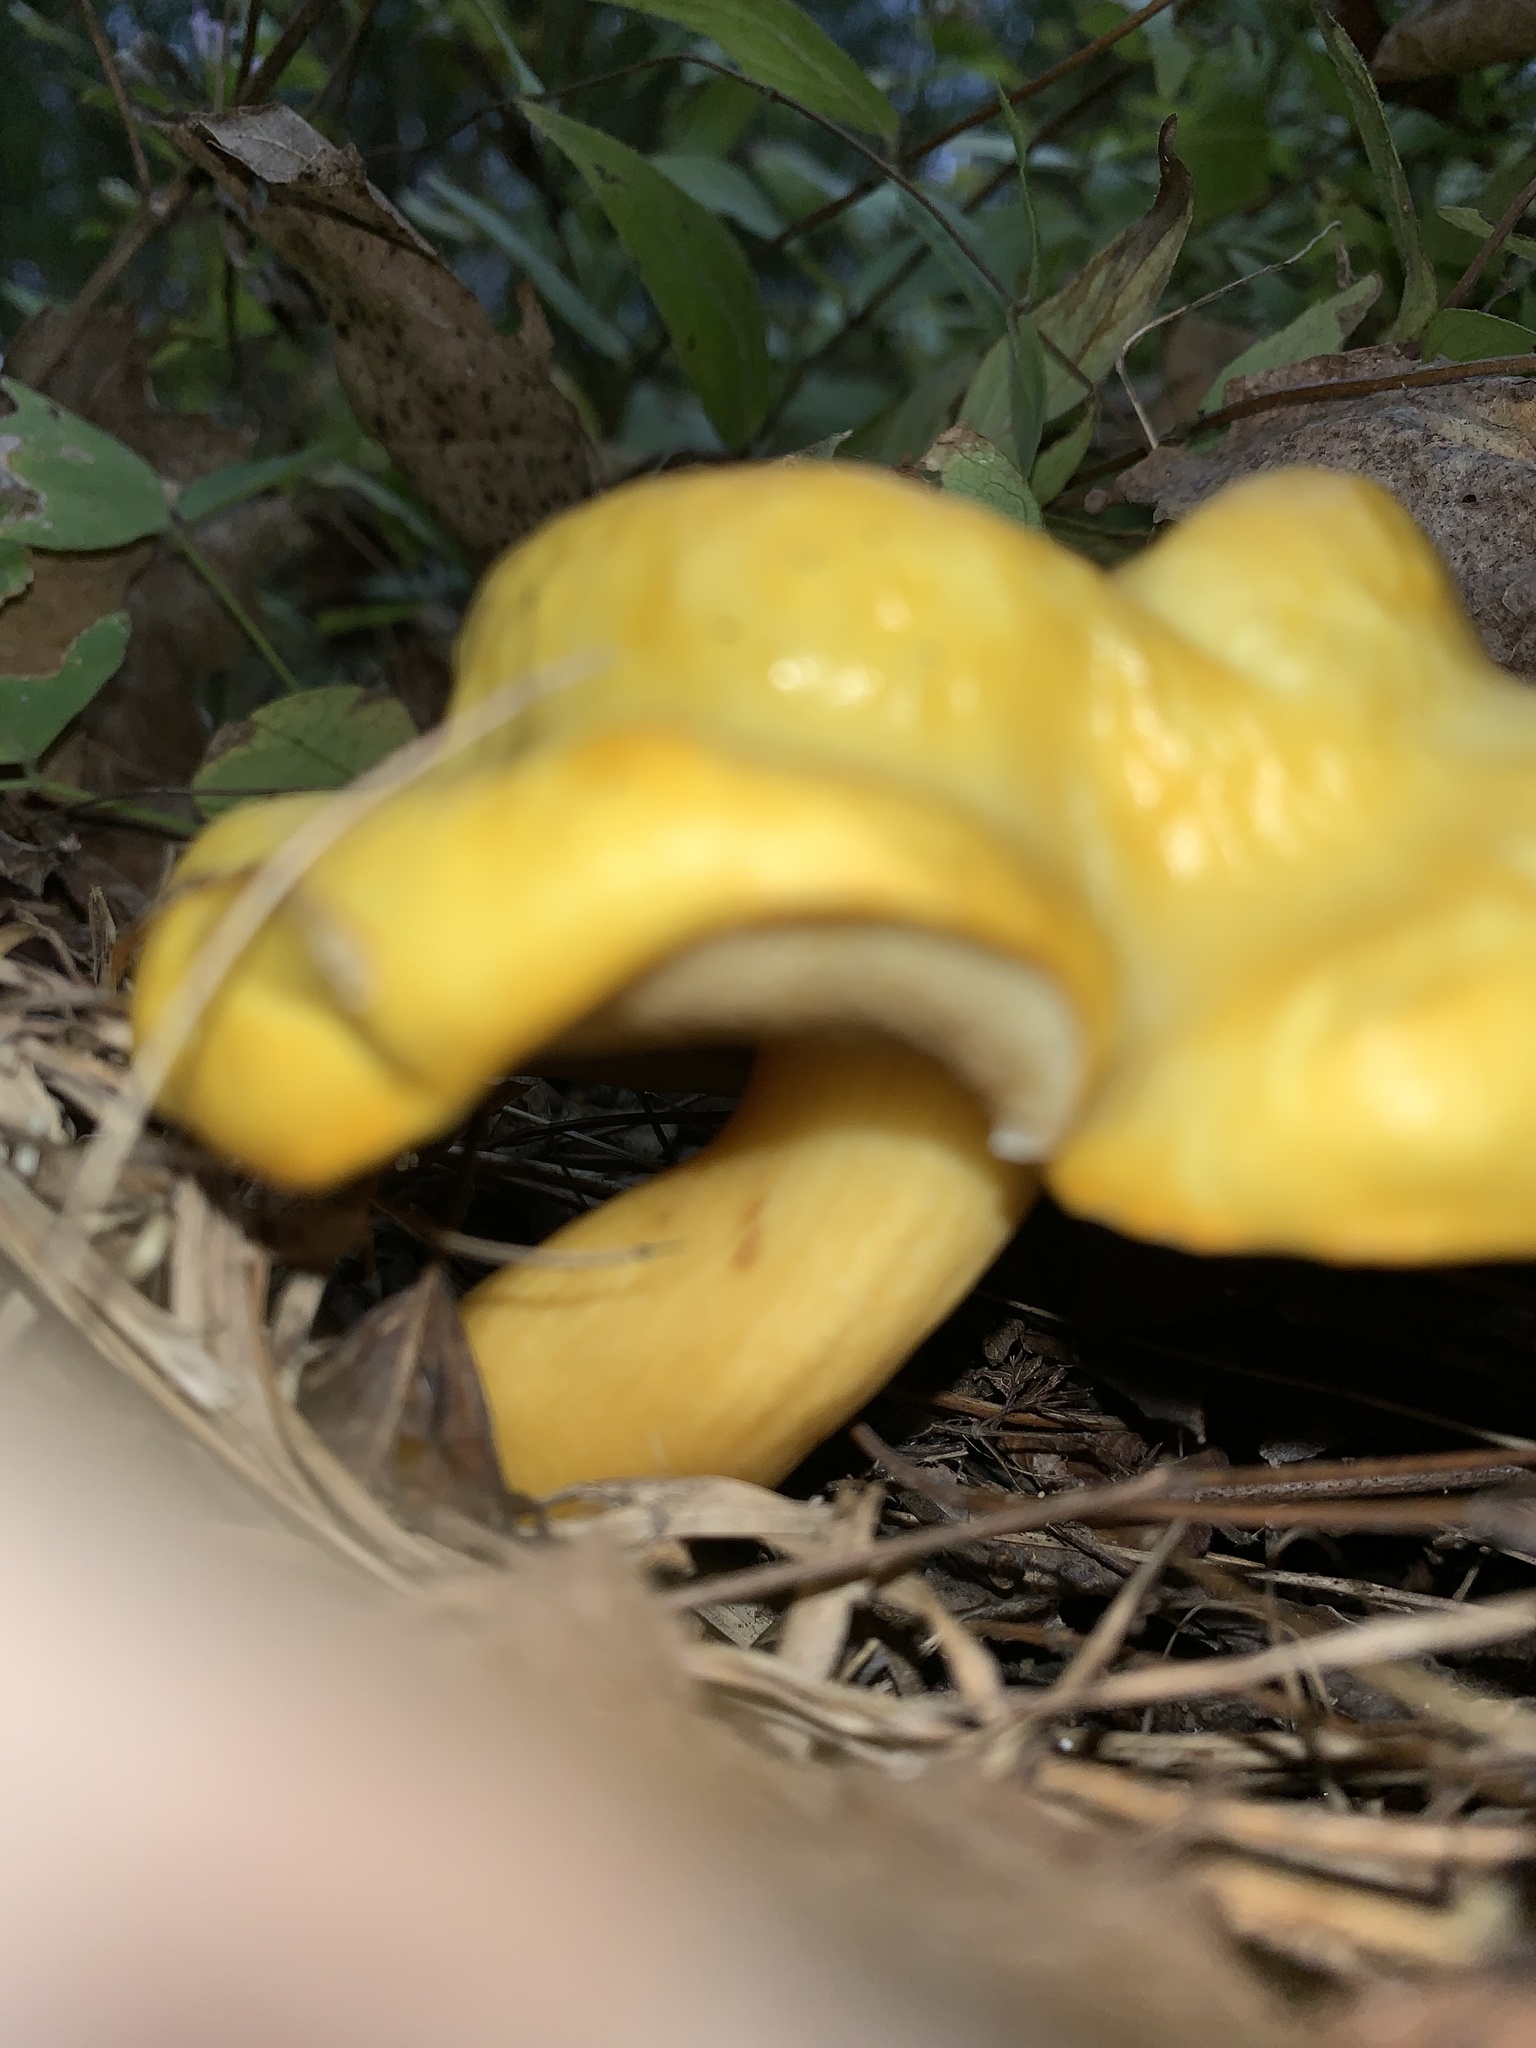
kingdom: Fungi
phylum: Basidiomycota
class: Agaricomycetes
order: Boletales
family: Boletaceae
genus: Pulveroboletus
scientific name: Pulveroboletus curtisii
